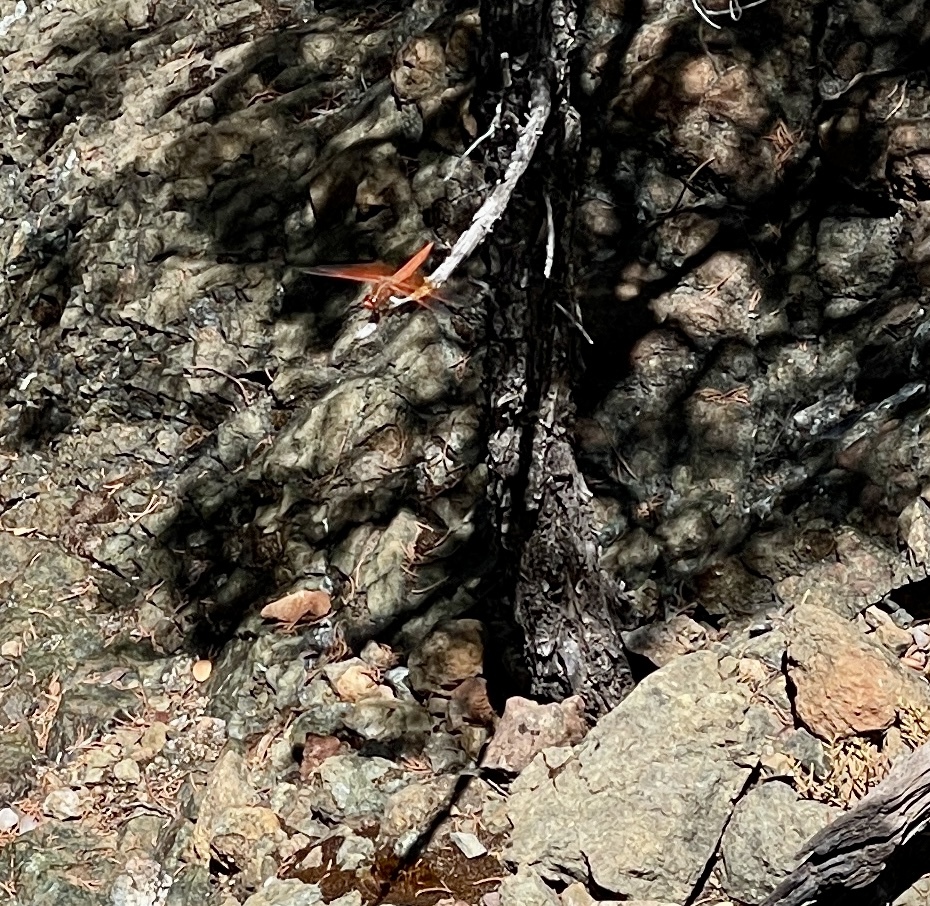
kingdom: Animalia
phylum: Arthropoda
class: Insecta
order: Odonata
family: Libellulidae
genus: Libellula
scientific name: Libellula saturata
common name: Flame skimmer
